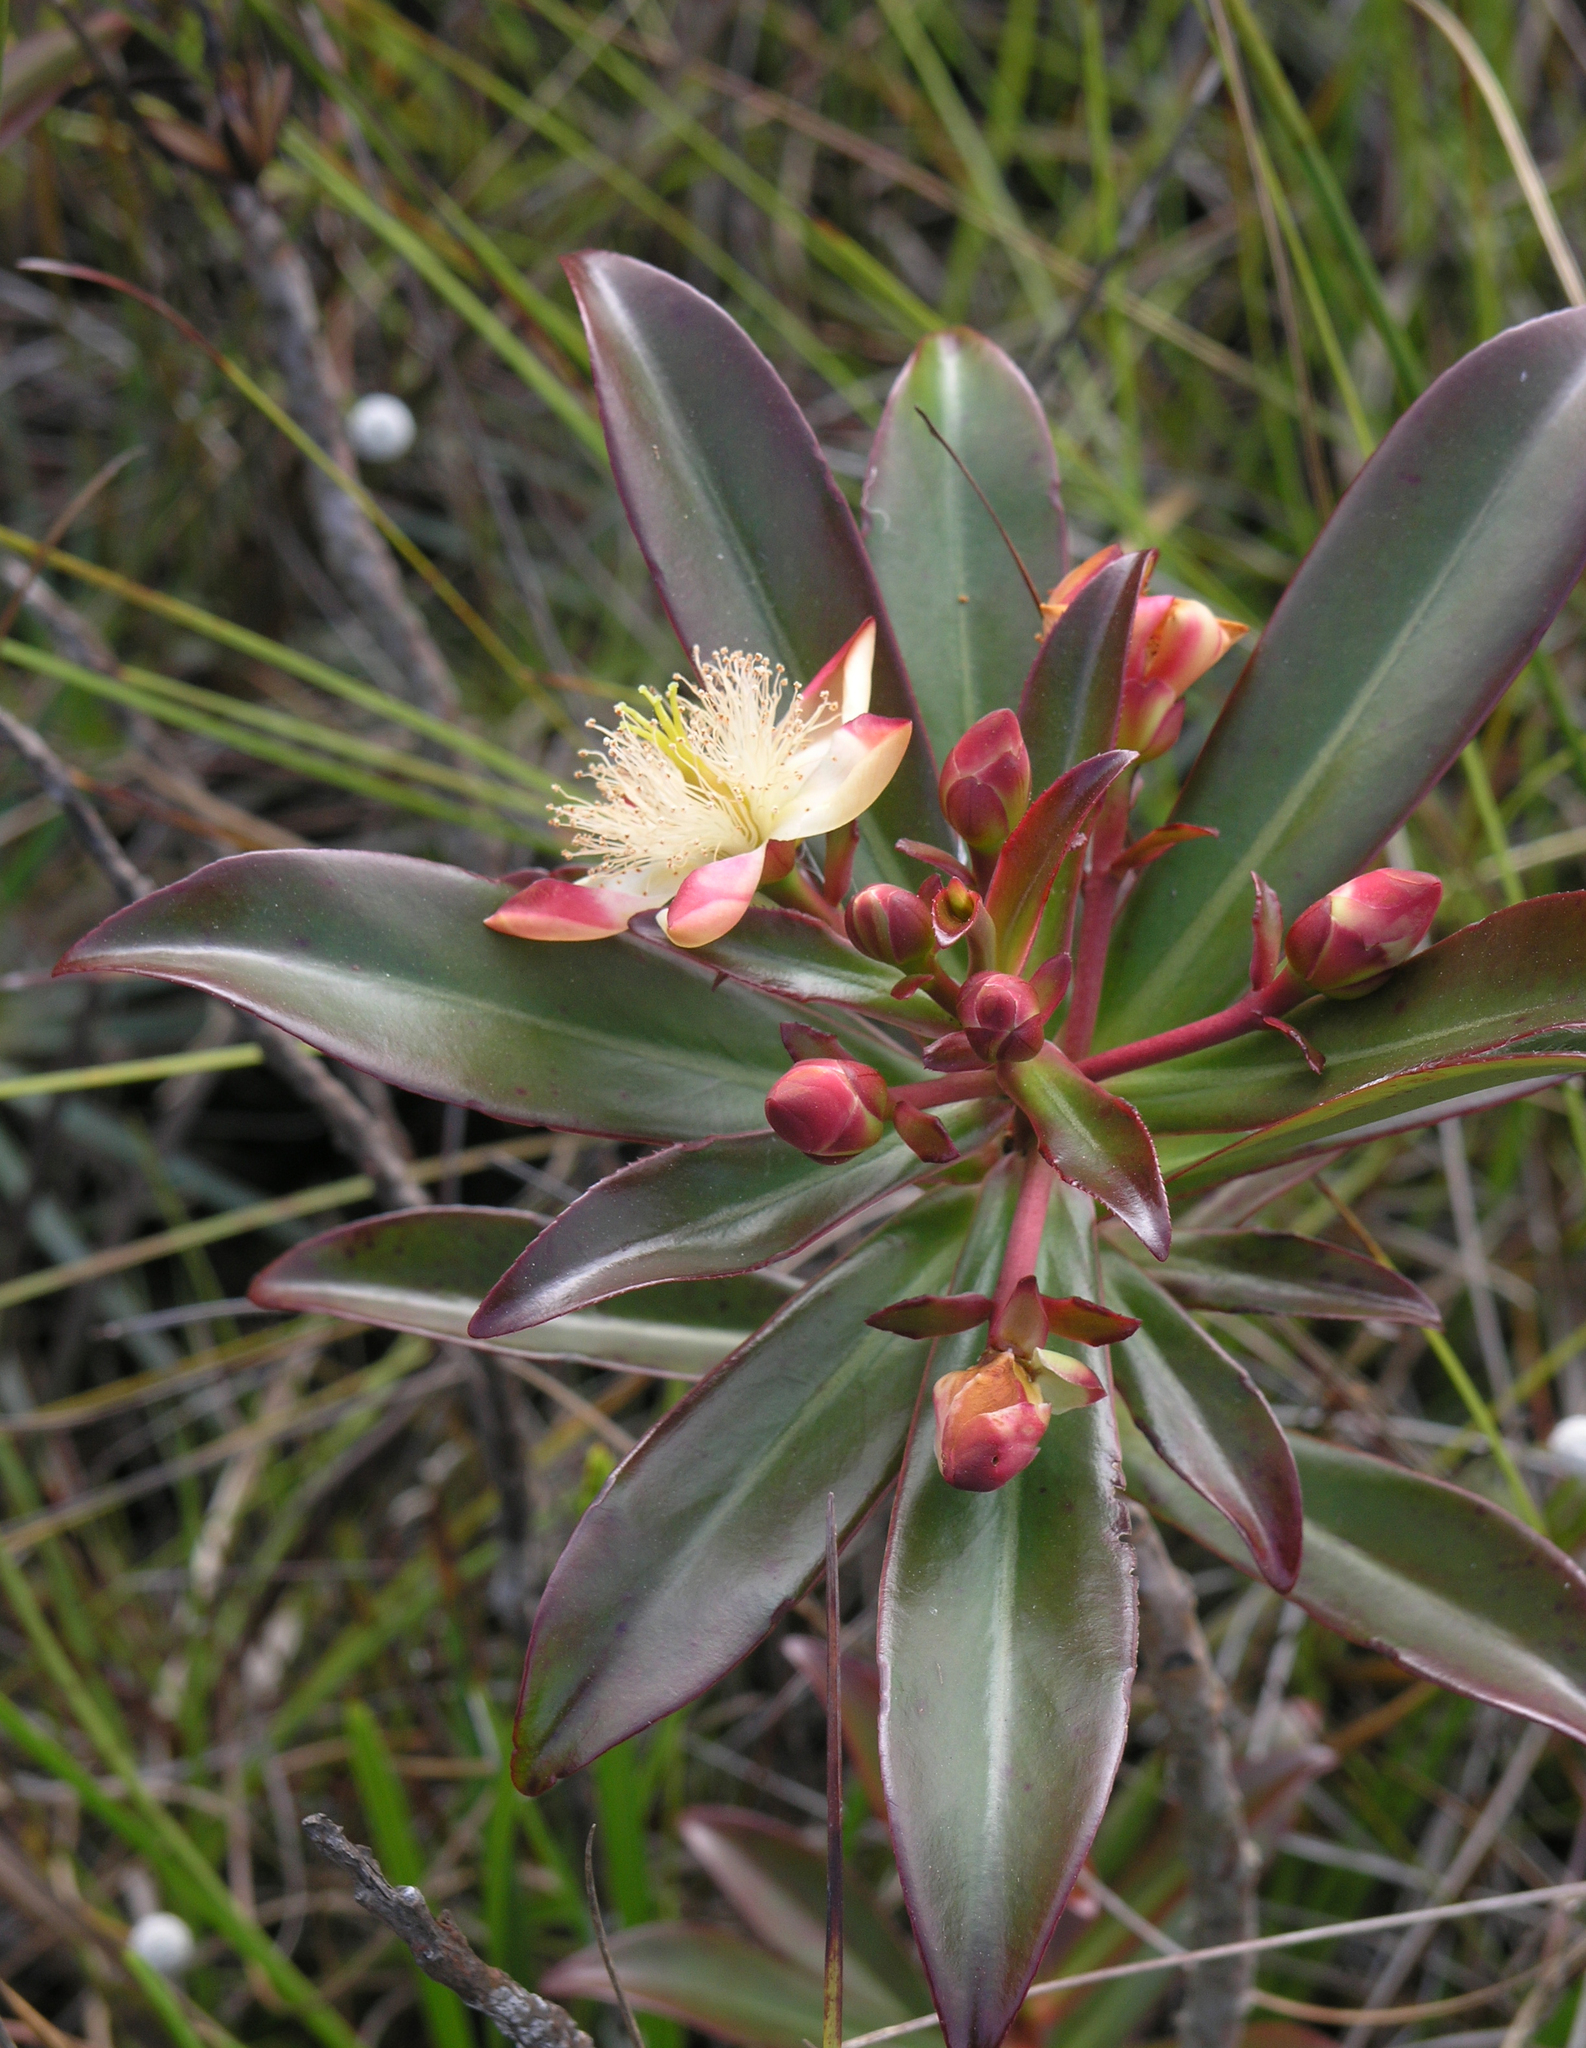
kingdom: Plantae
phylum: Tracheophyta
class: Magnoliopsida
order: Malpighiales
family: Bonnetiaceae
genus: Ploiarium
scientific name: Ploiarium elegans
